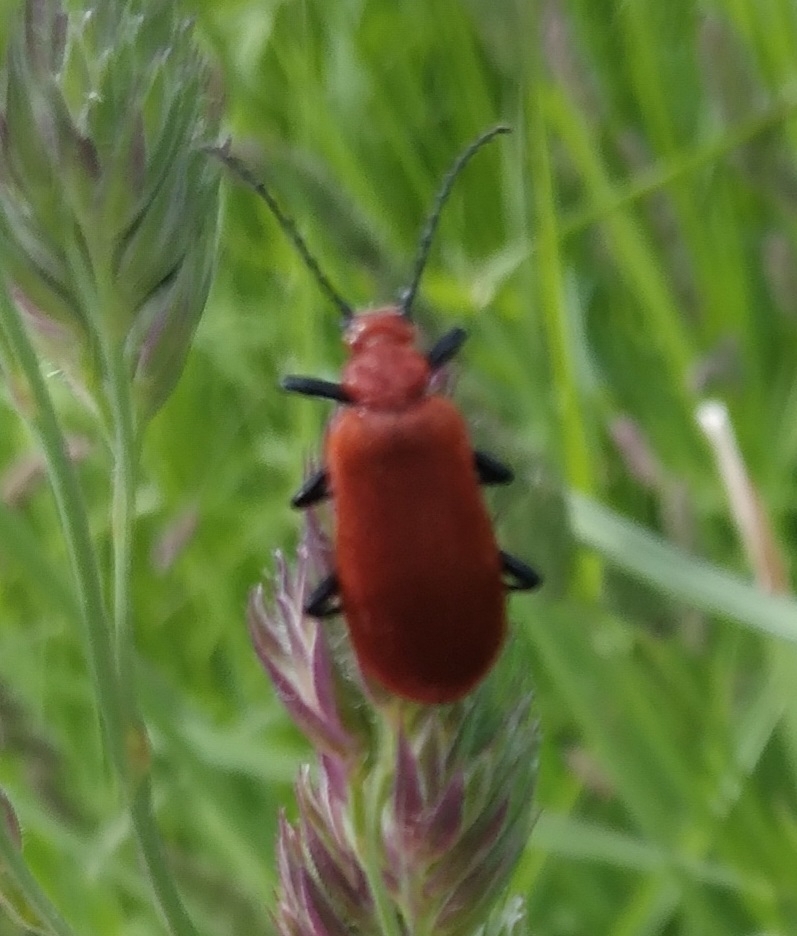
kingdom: Animalia
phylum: Arthropoda
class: Insecta
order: Coleoptera
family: Pyrochroidae
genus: Pyrochroa
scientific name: Pyrochroa serraticornis
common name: Red-headed cardinal beetle
